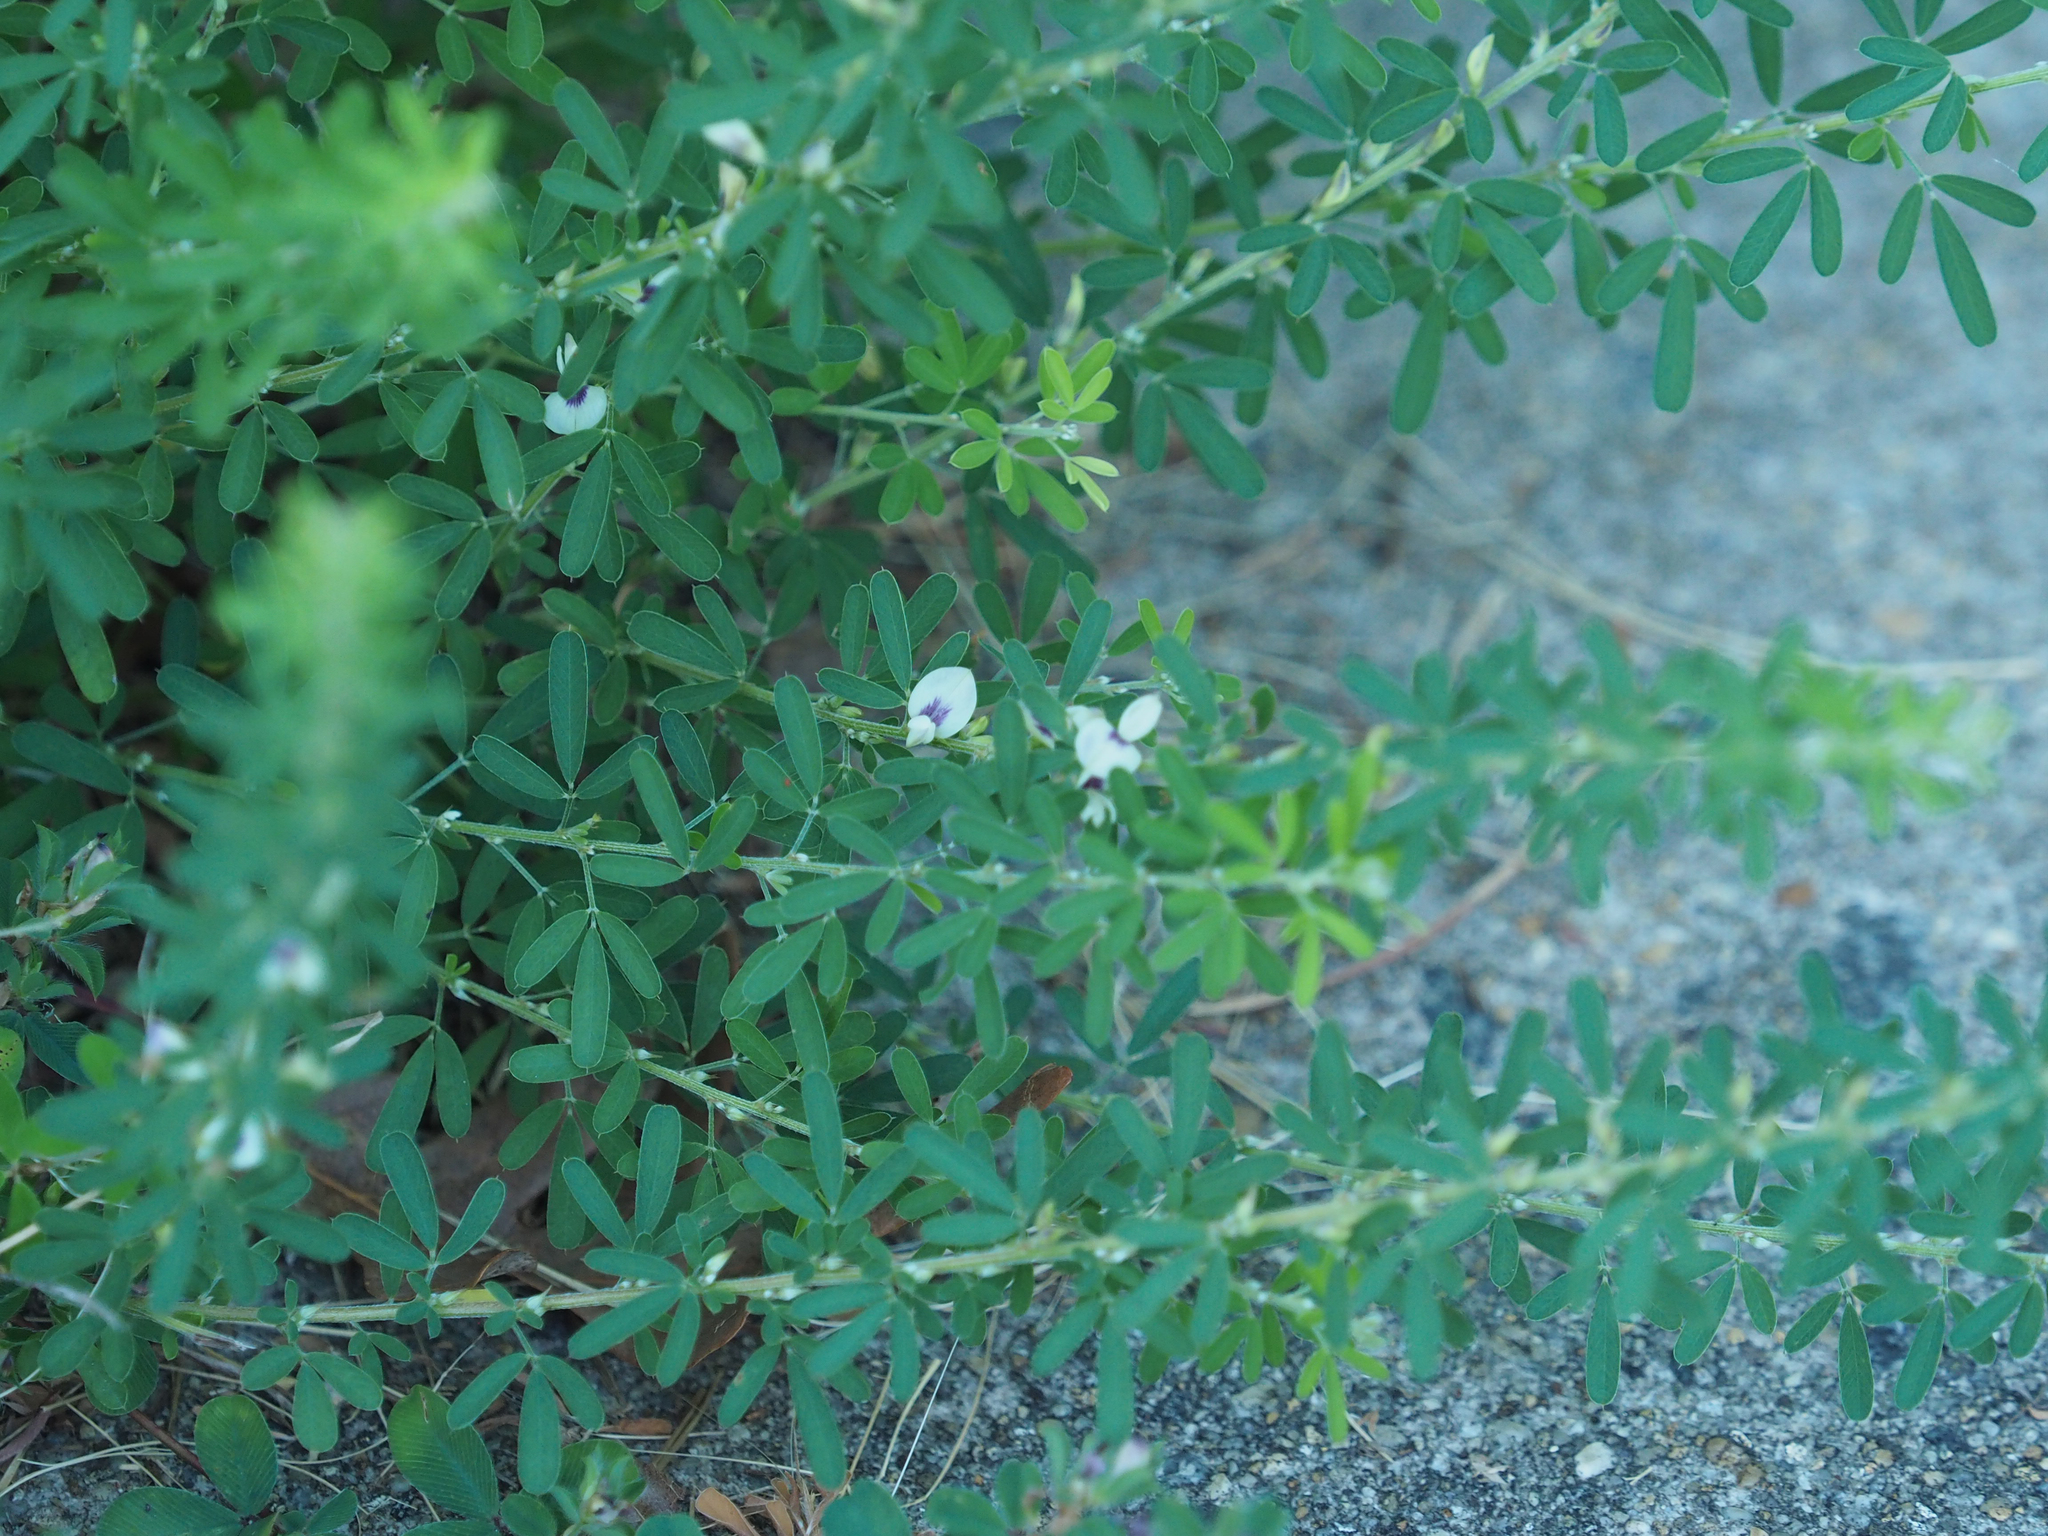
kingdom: Plantae
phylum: Tracheophyta
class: Magnoliopsida
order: Fabales
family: Fabaceae
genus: Lespedeza
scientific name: Lespedeza cuneata
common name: Chinese bush-clover
